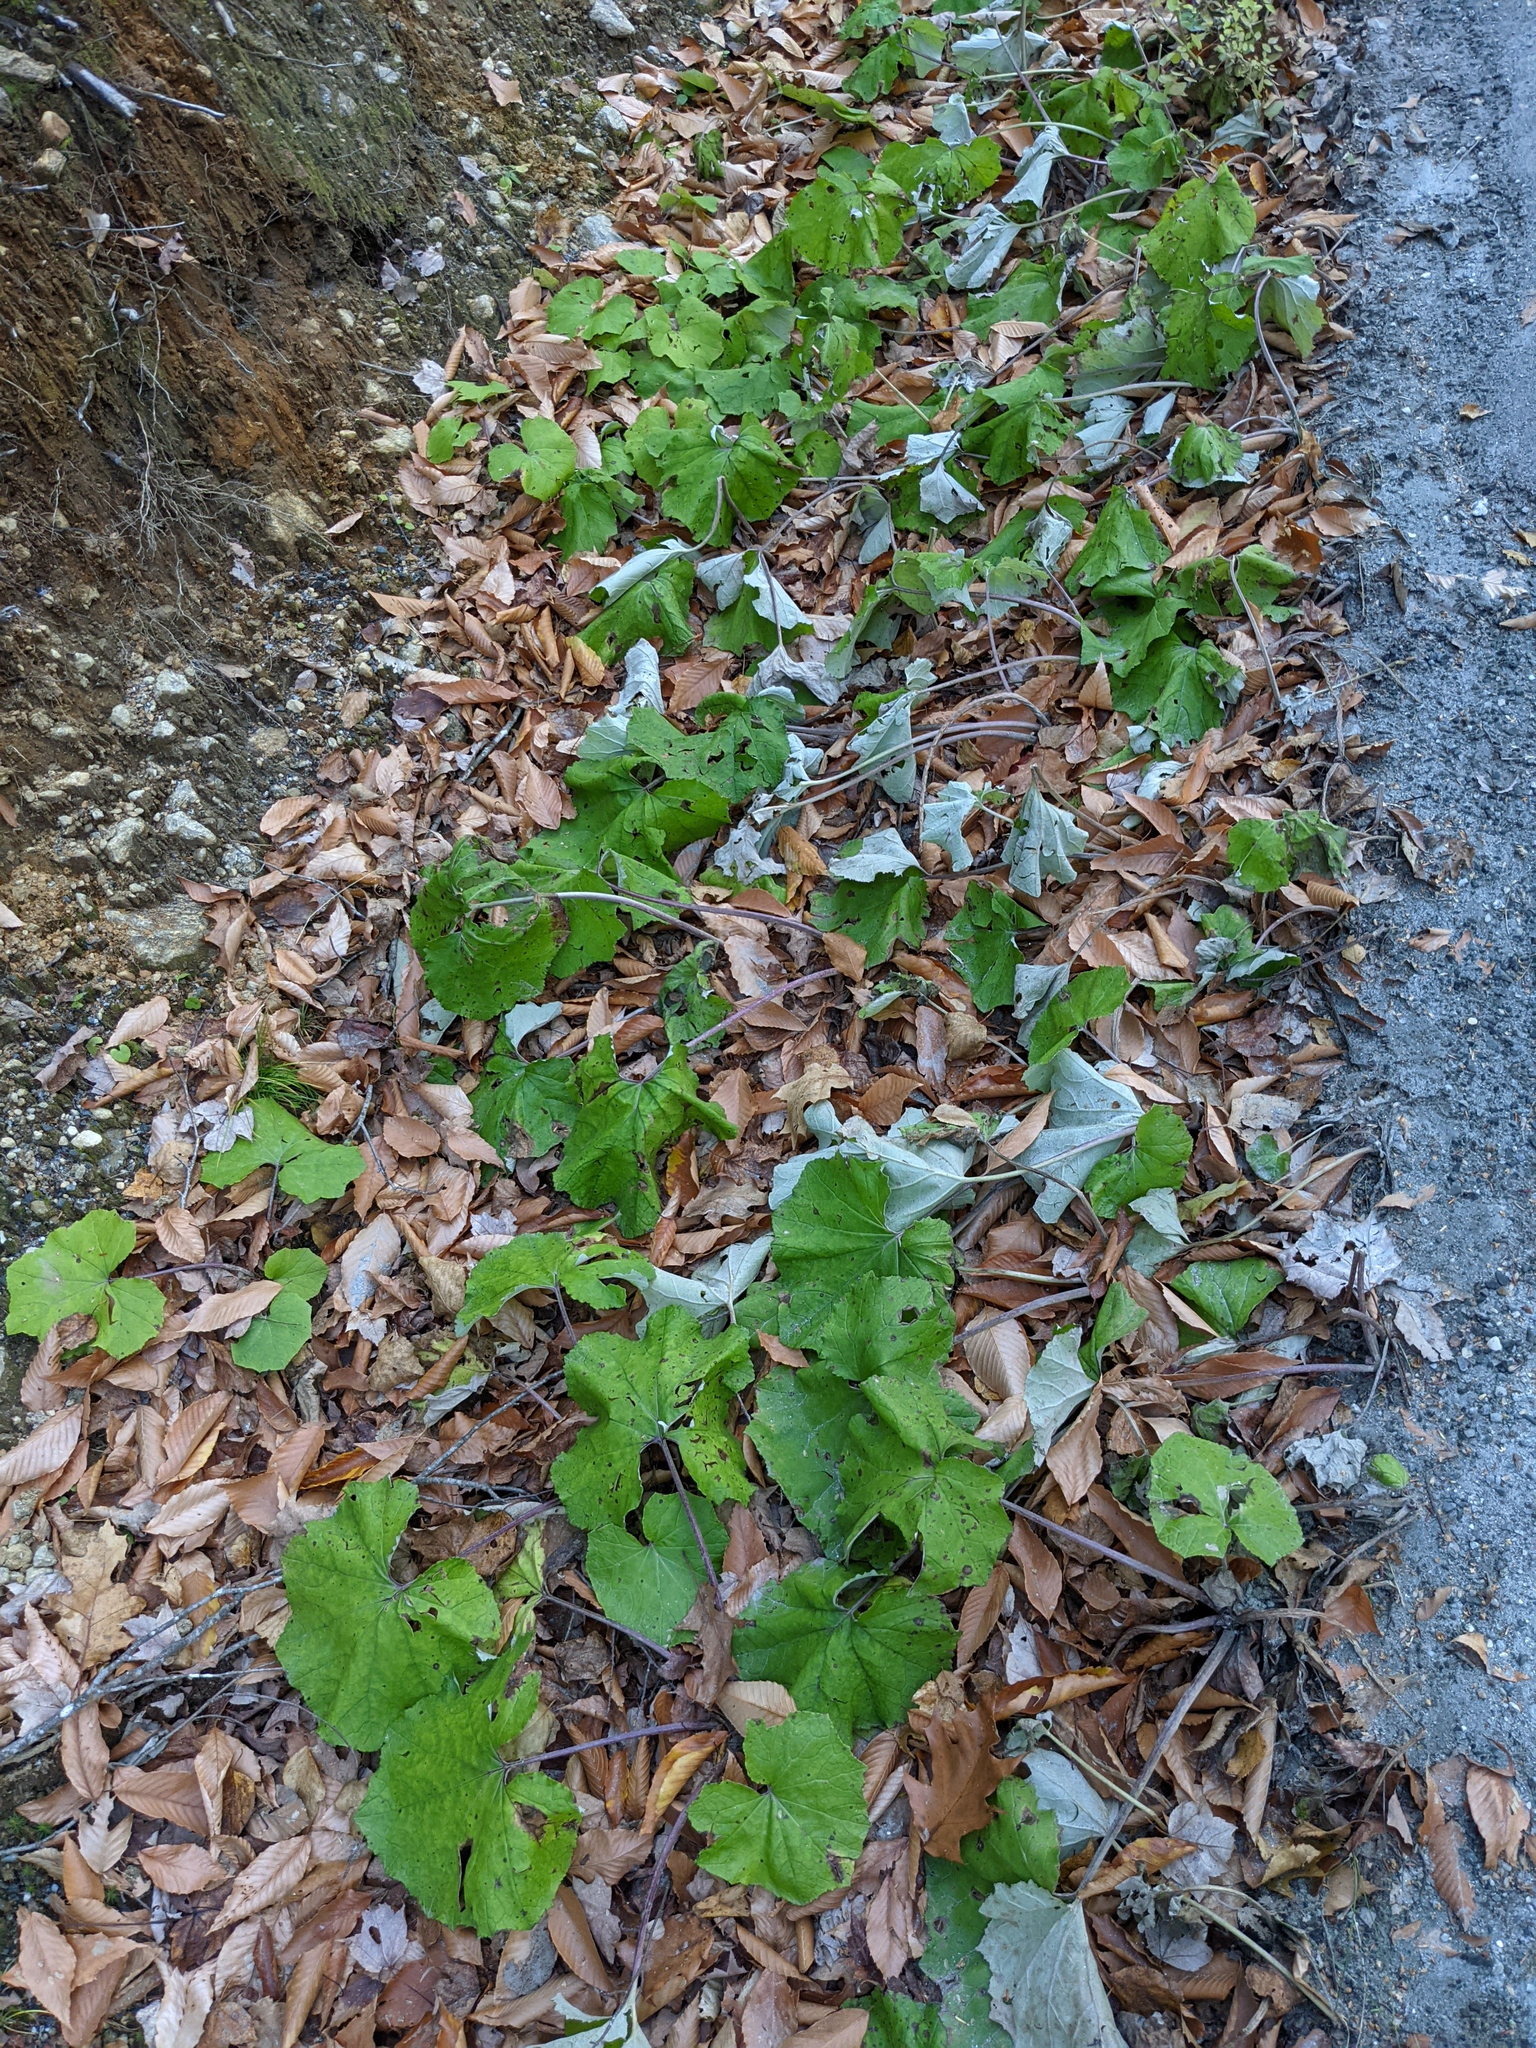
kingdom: Plantae
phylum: Tracheophyta
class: Magnoliopsida
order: Asterales
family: Asteraceae
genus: Tussilago
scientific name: Tussilago farfara
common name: Coltsfoot
